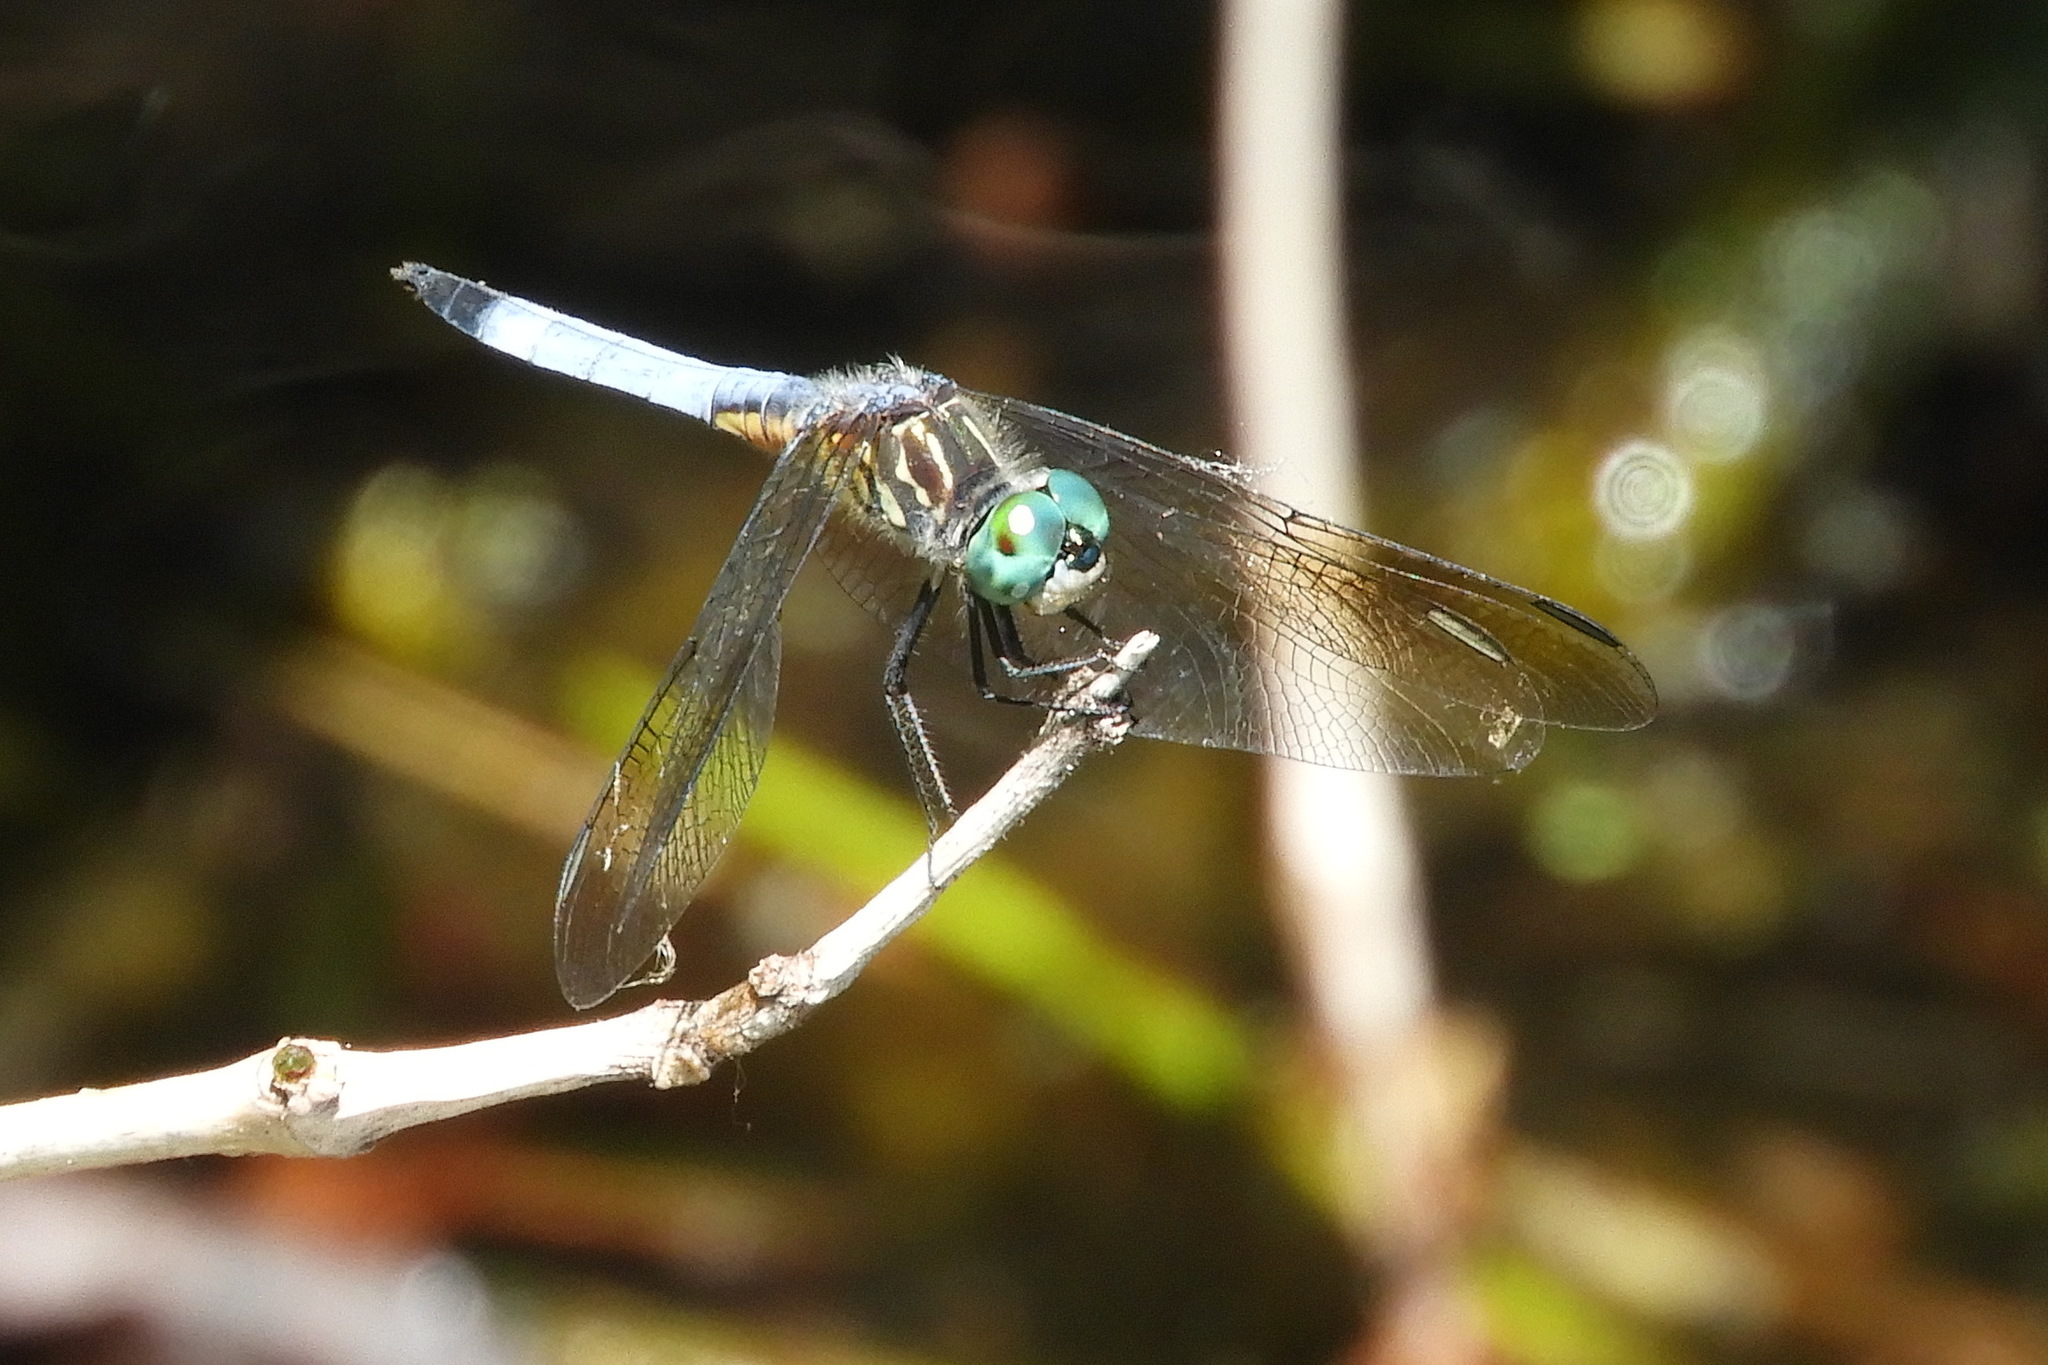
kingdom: Animalia
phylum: Arthropoda
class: Insecta
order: Odonata
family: Libellulidae
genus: Pachydiplax
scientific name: Pachydiplax longipennis
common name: Blue dasher
